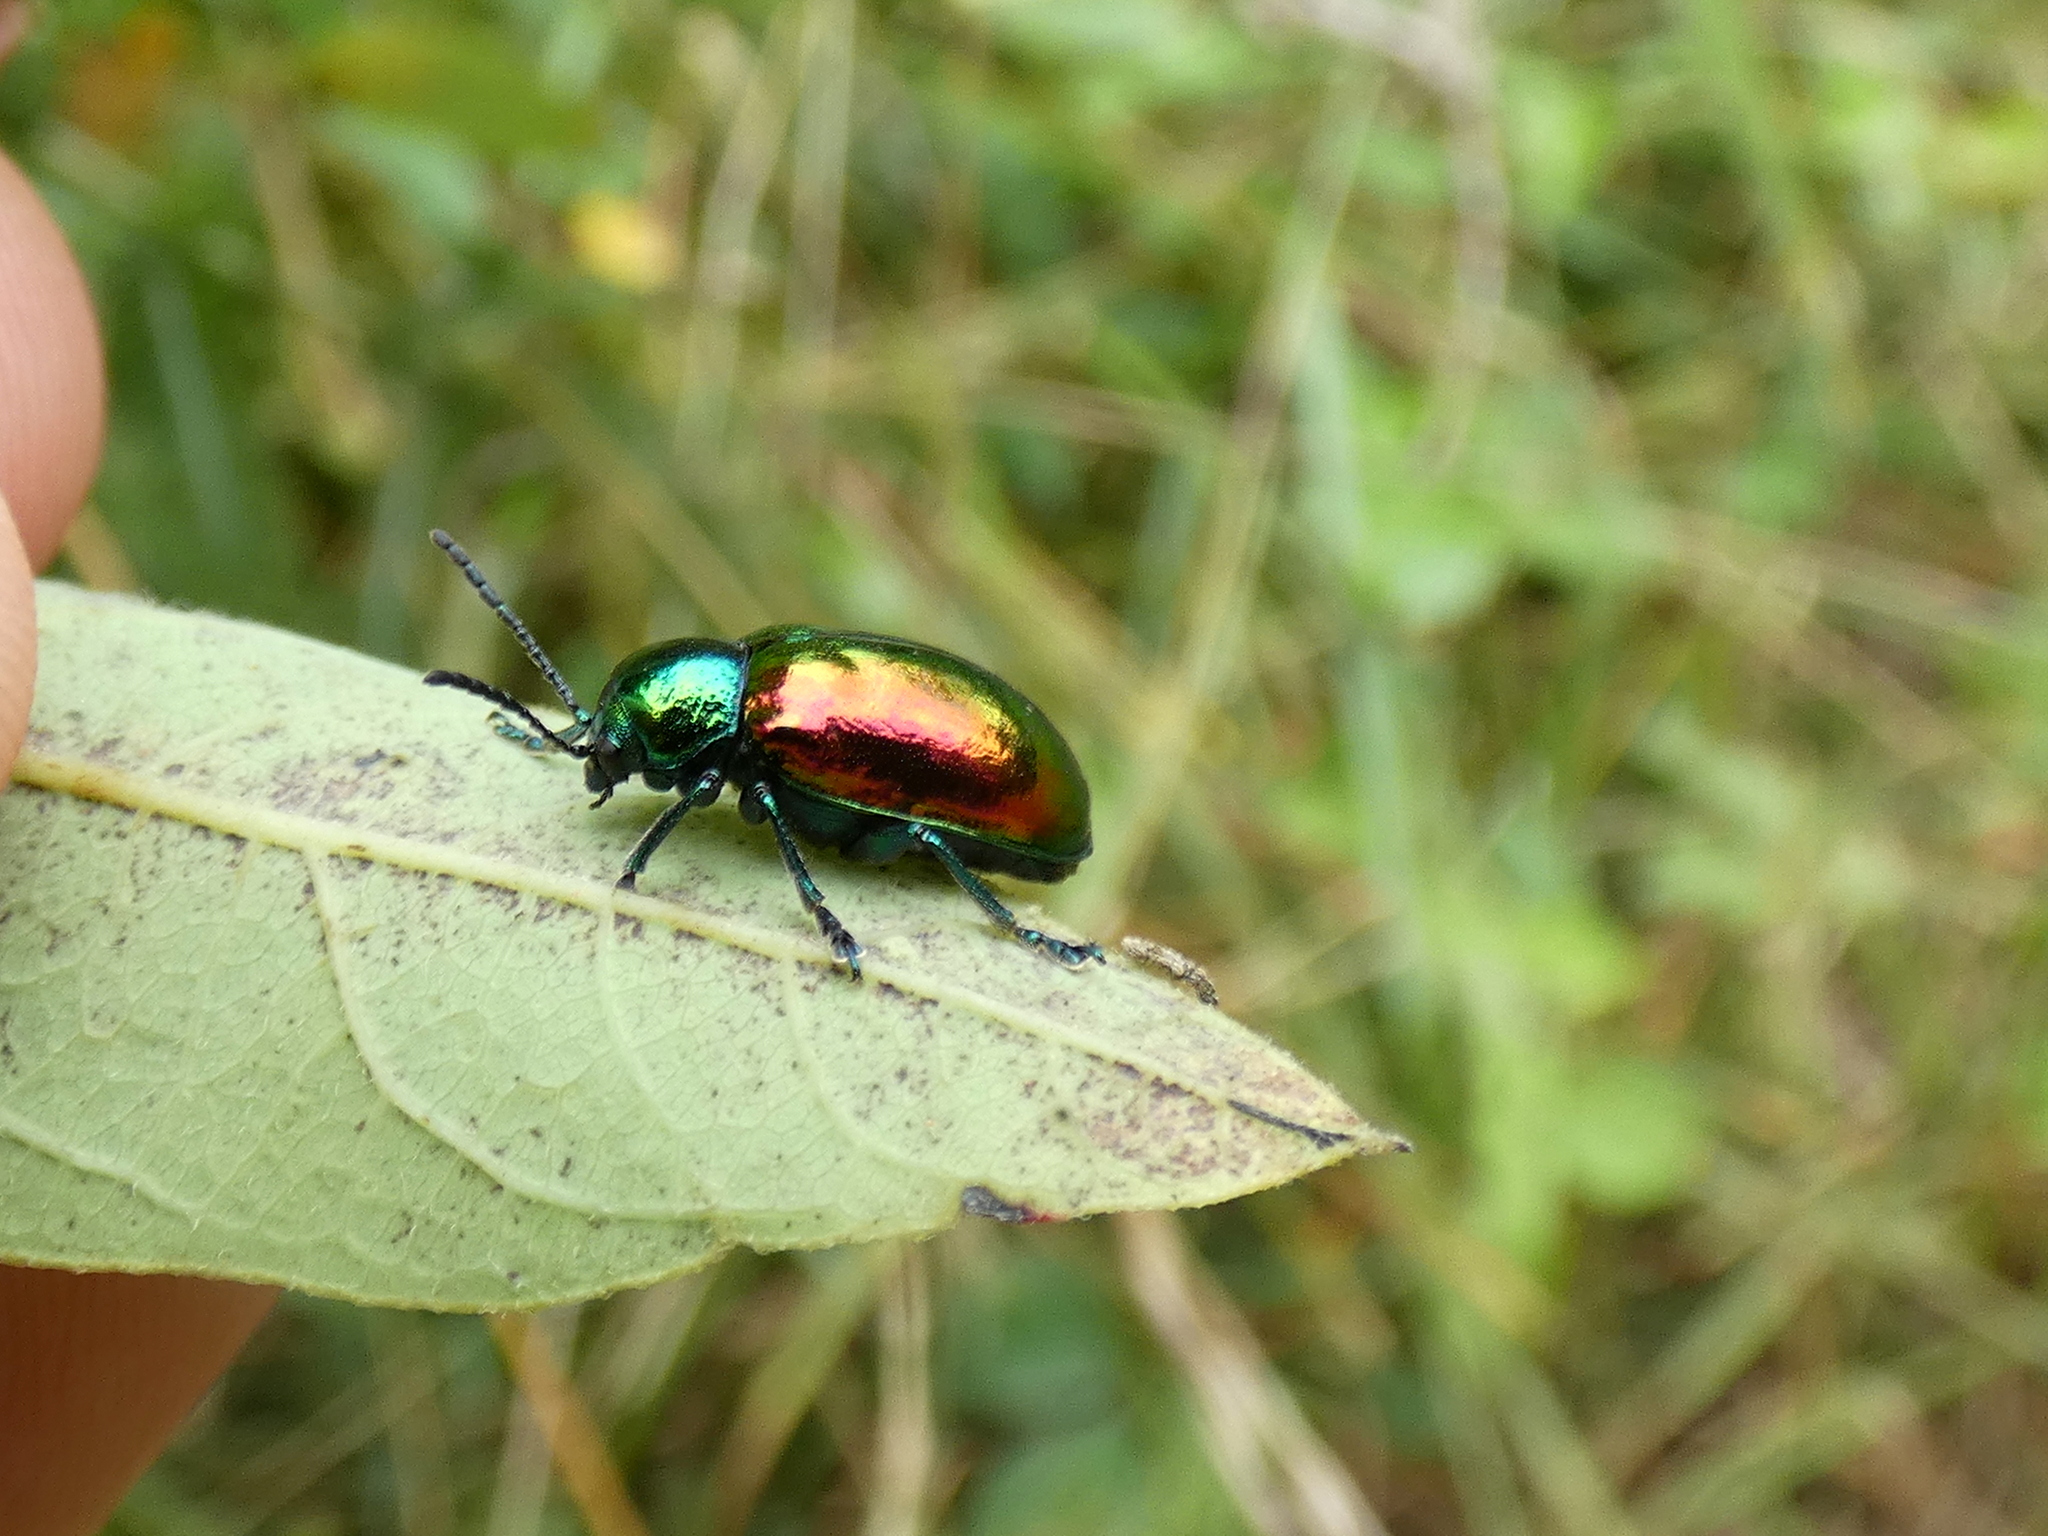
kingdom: Animalia
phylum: Arthropoda
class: Insecta
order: Coleoptera
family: Chrysomelidae
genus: Chrysochus
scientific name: Chrysochus auratus
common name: Dogbane leaf beetle
